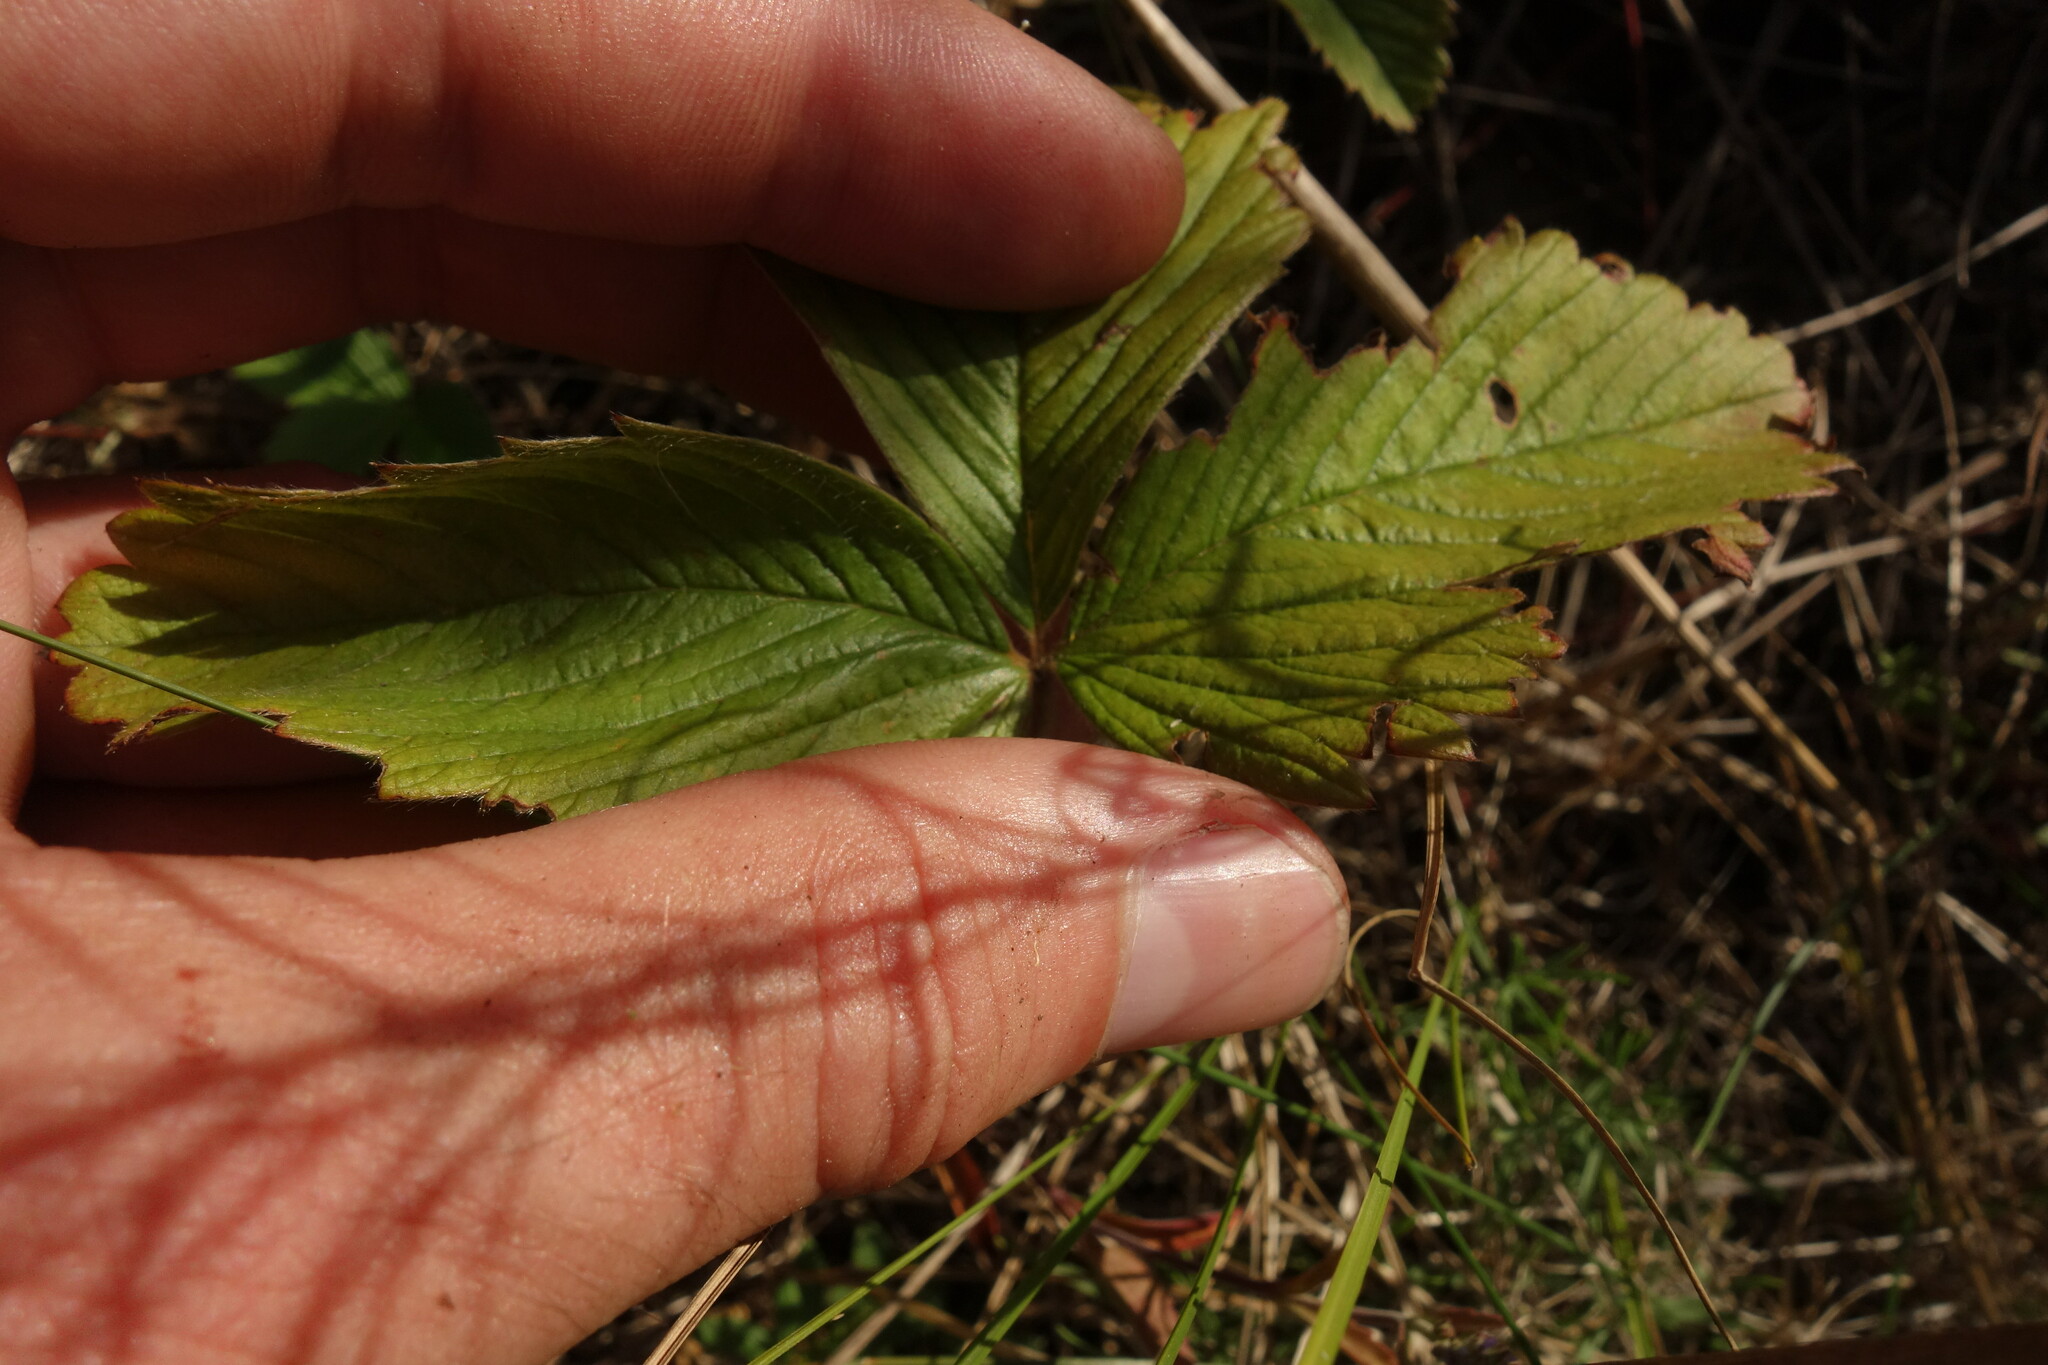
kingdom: Plantae
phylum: Tracheophyta
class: Magnoliopsida
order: Rosales
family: Rosaceae
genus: Fragaria
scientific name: Fragaria viridis
